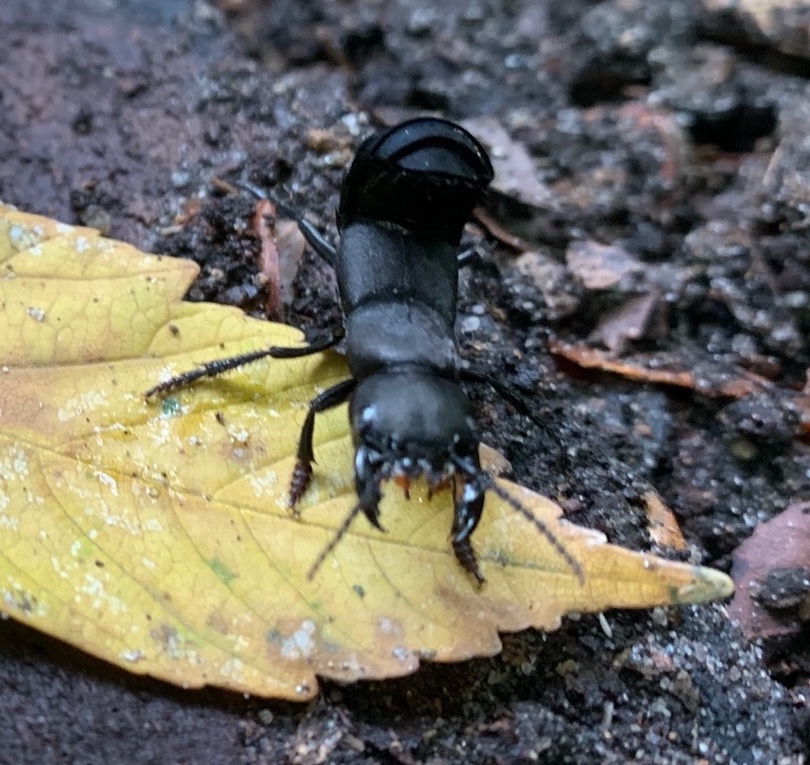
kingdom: Animalia
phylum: Arthropoda
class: Insecta
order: Coleoptera
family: Staphylinidae
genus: Ocypus
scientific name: Ocypus olens
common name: Devil's coach-horse
